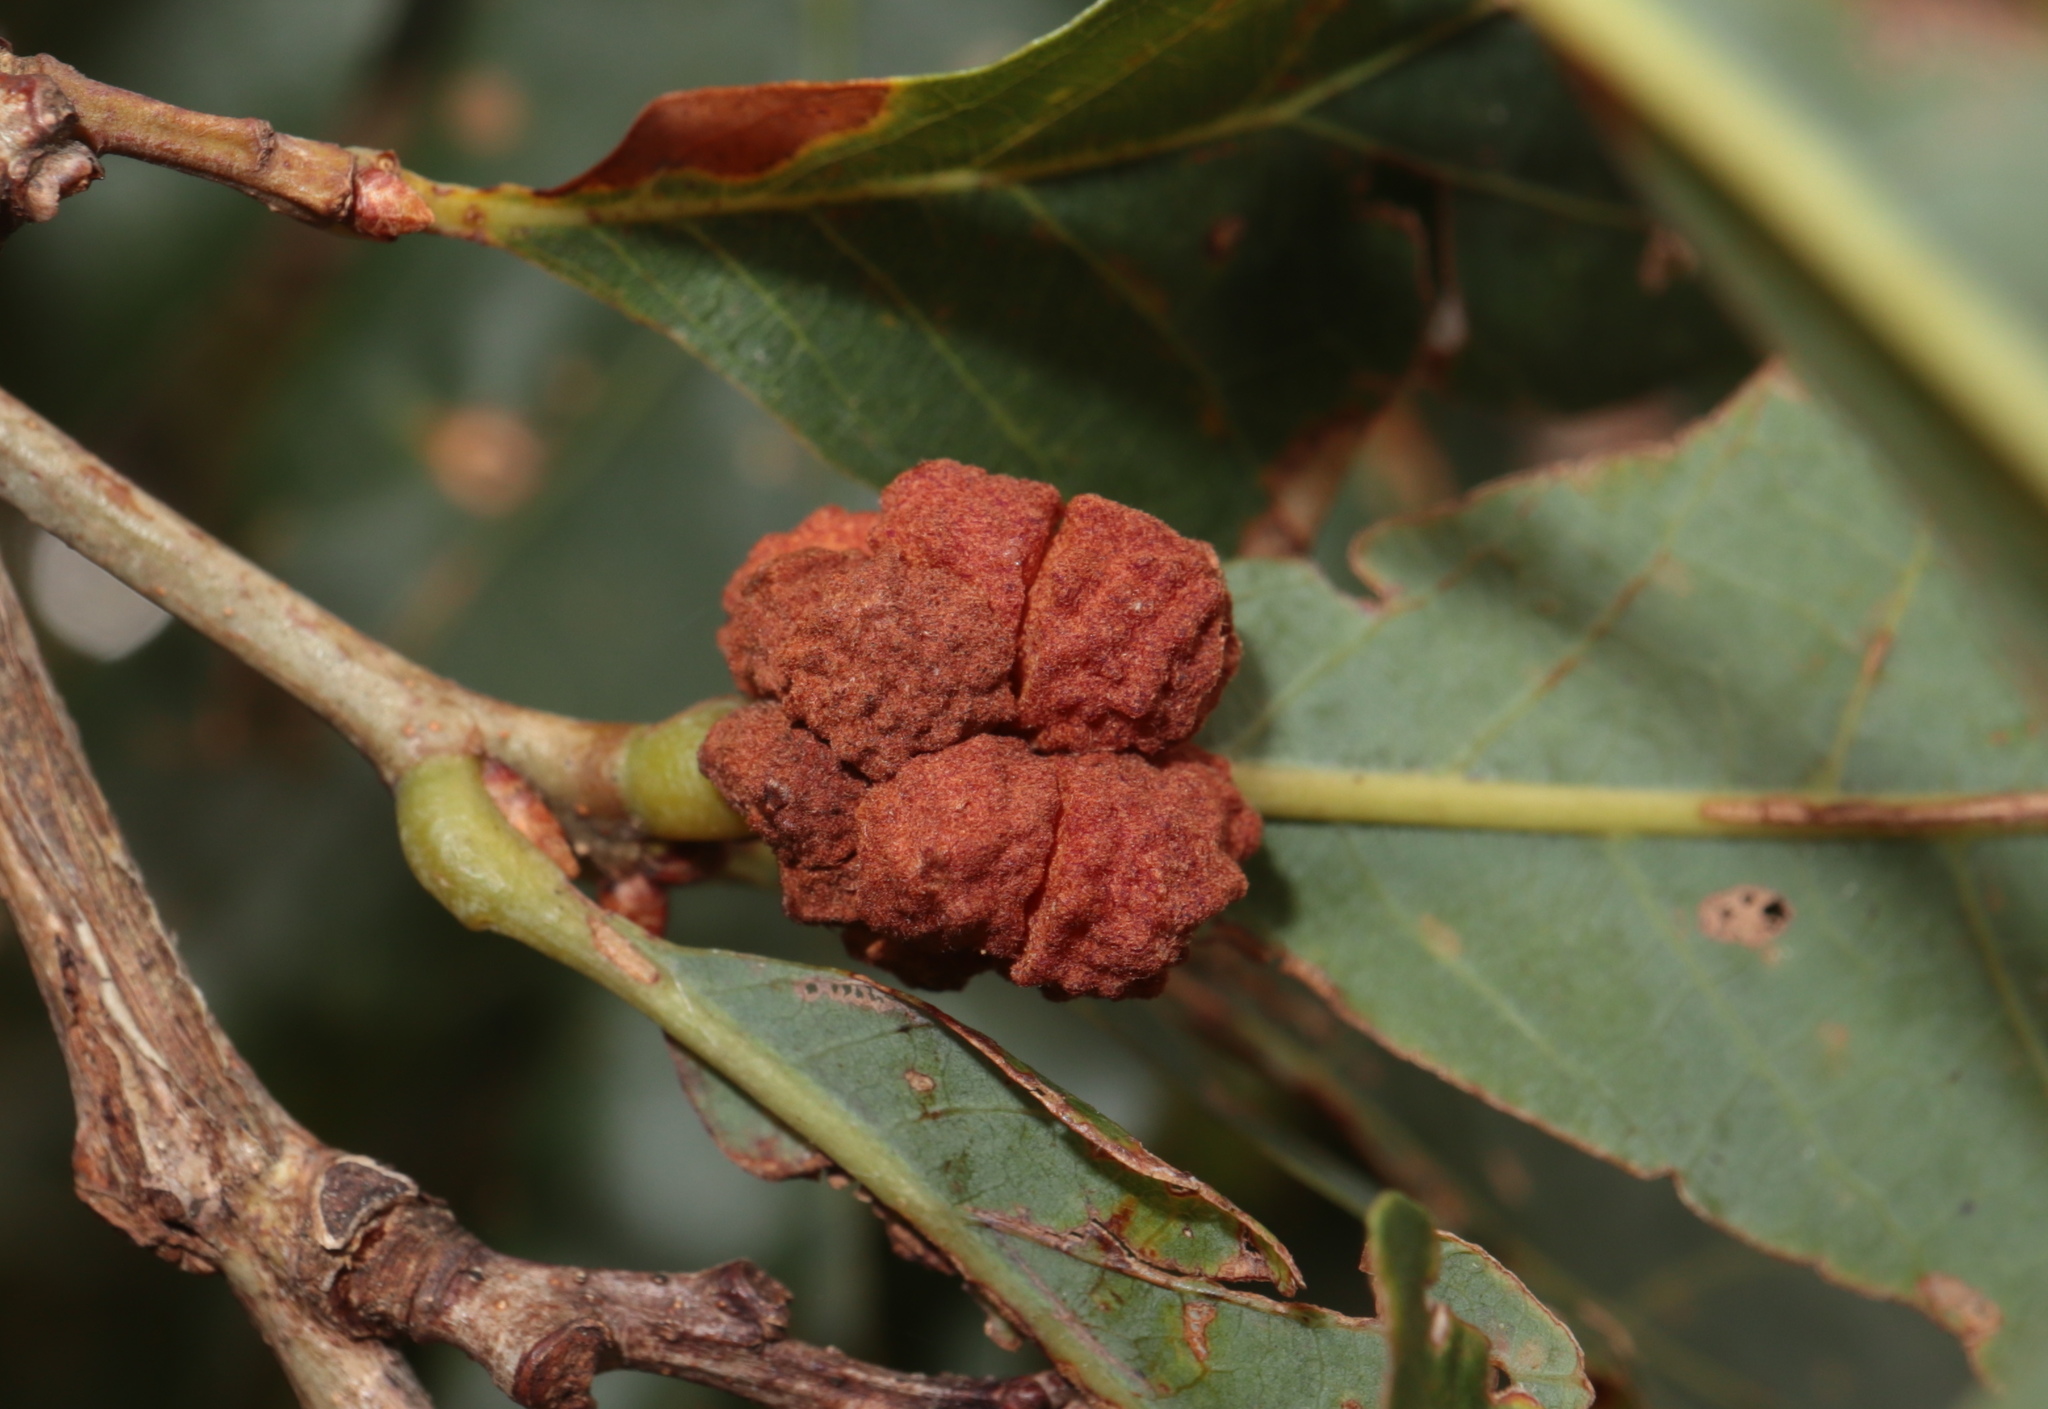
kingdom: Animalia
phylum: Arthropoda
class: Insecta
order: Hymenoptera
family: Cynipidae
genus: Andricus
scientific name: Andricus
